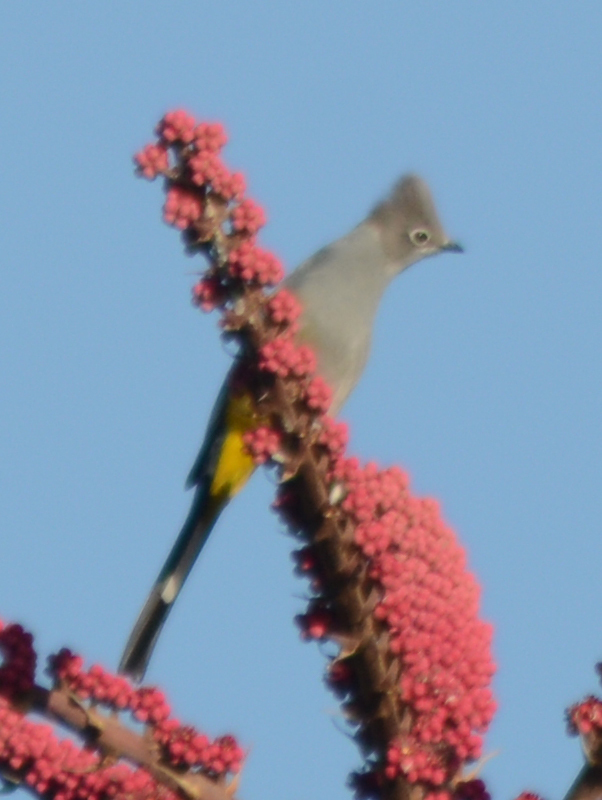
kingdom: Animalia
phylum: Chordata
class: Aves
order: Passeriformes
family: Ptilogonatidae
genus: Ptilogonys
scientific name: Ptilogonys cinereus
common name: Gray silky-flycatcher
